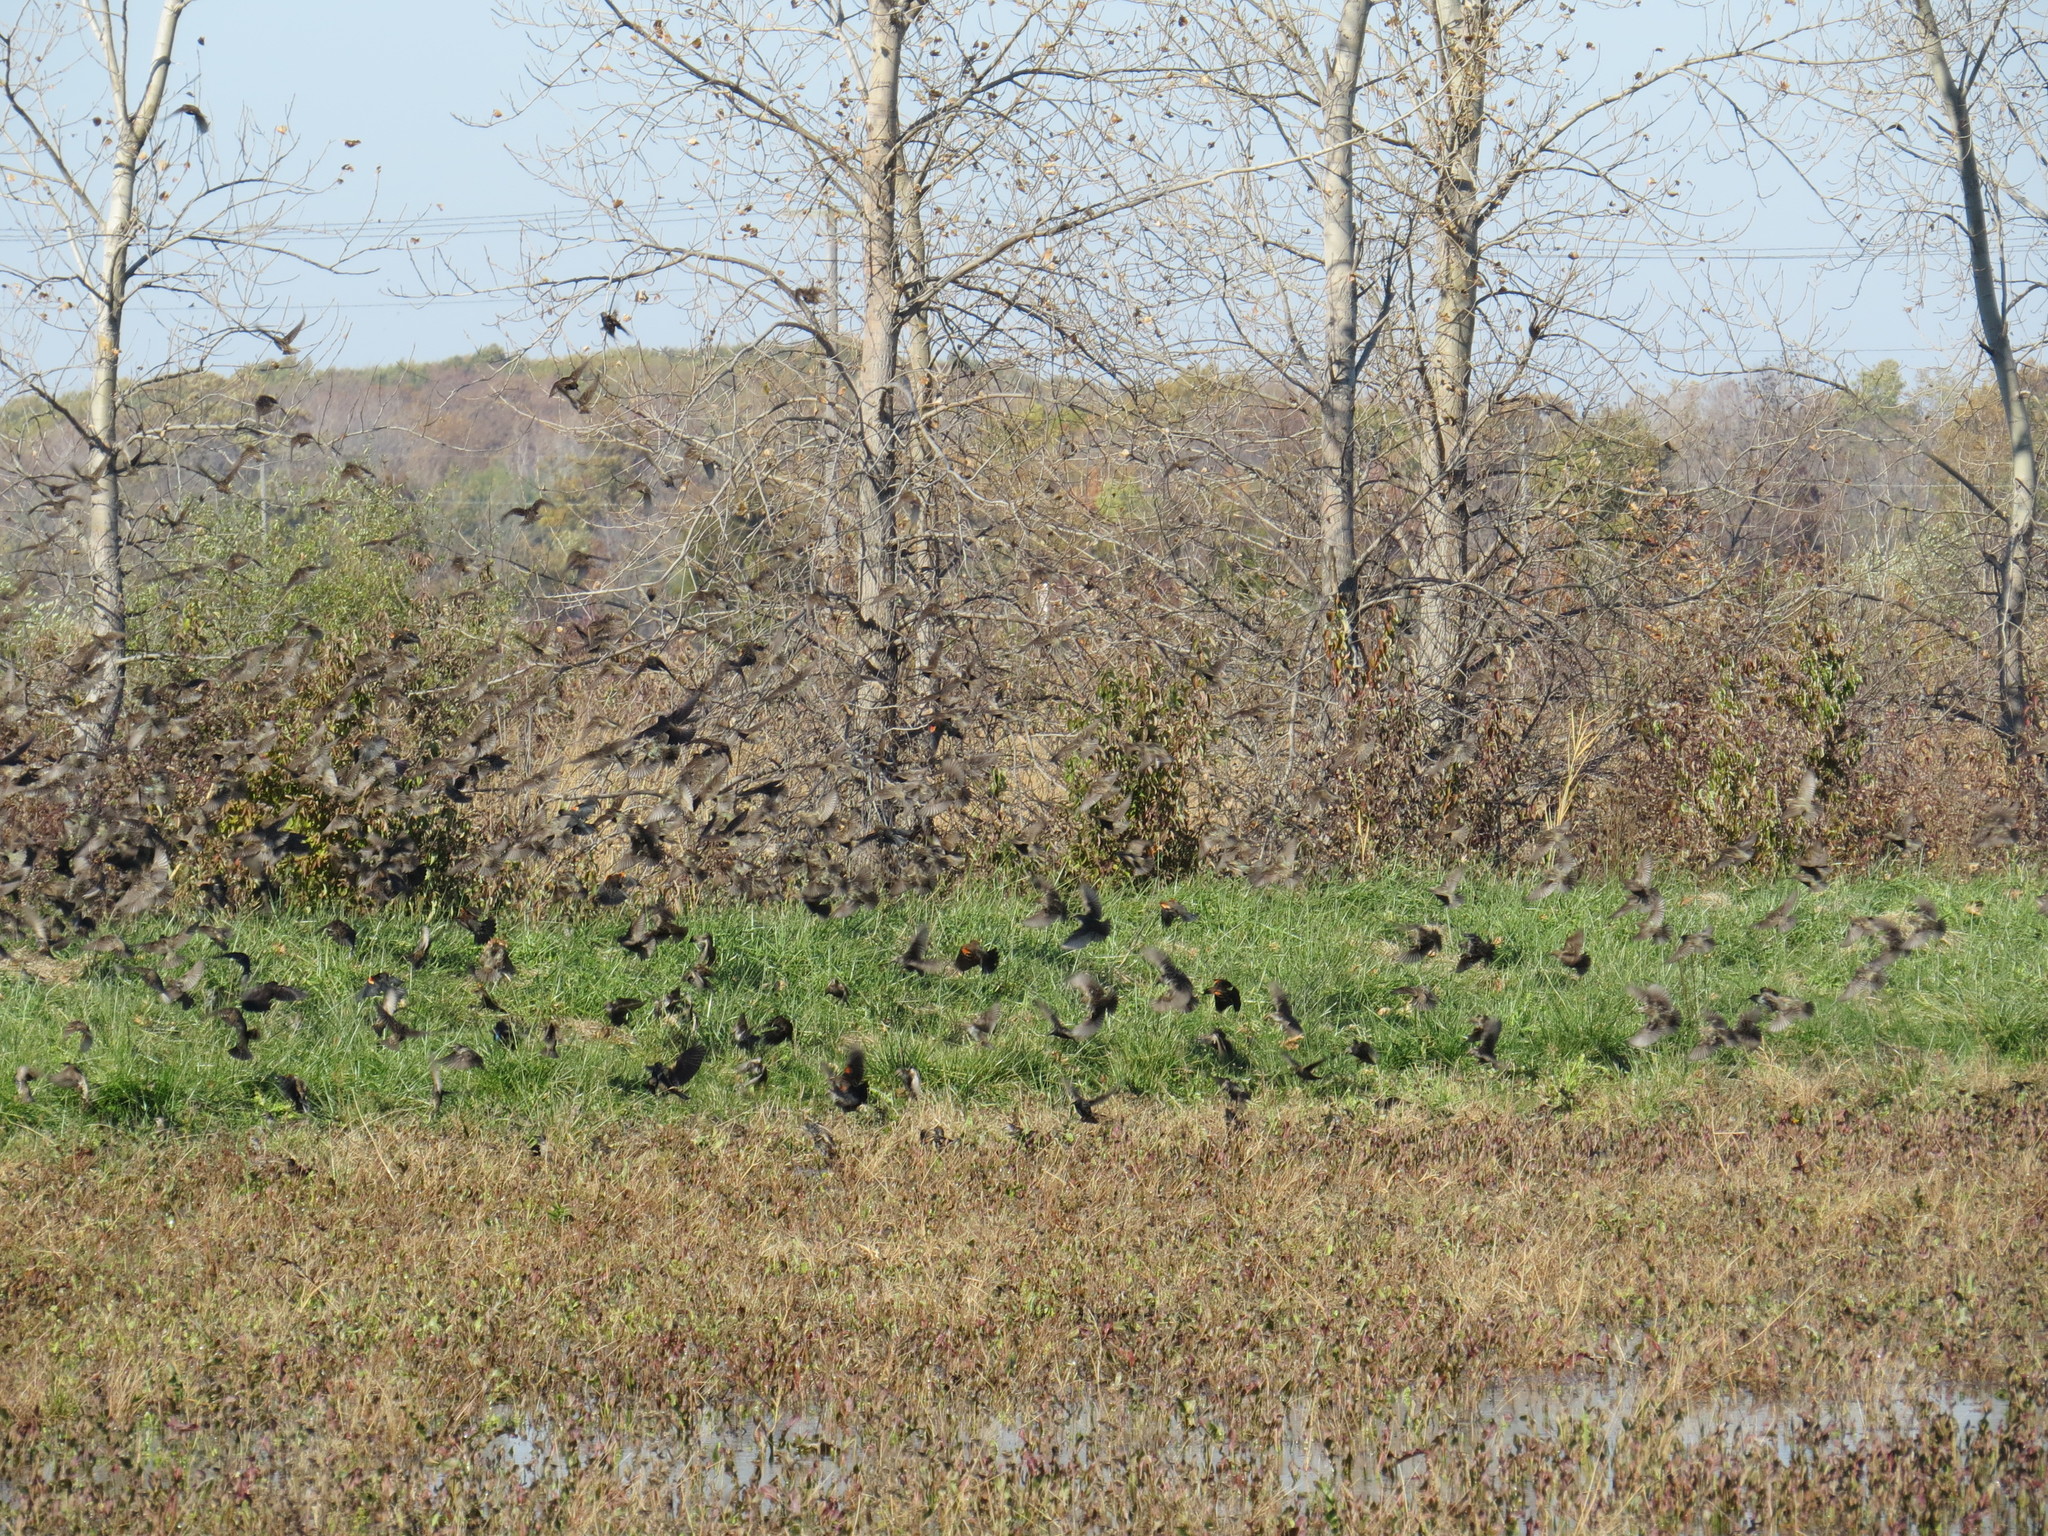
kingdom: Animalia
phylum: Chordata
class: Aves
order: Passeriformes
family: Icteridae
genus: Agelaius
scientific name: Agelaius phoeniceus
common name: Red-winged blackbird
